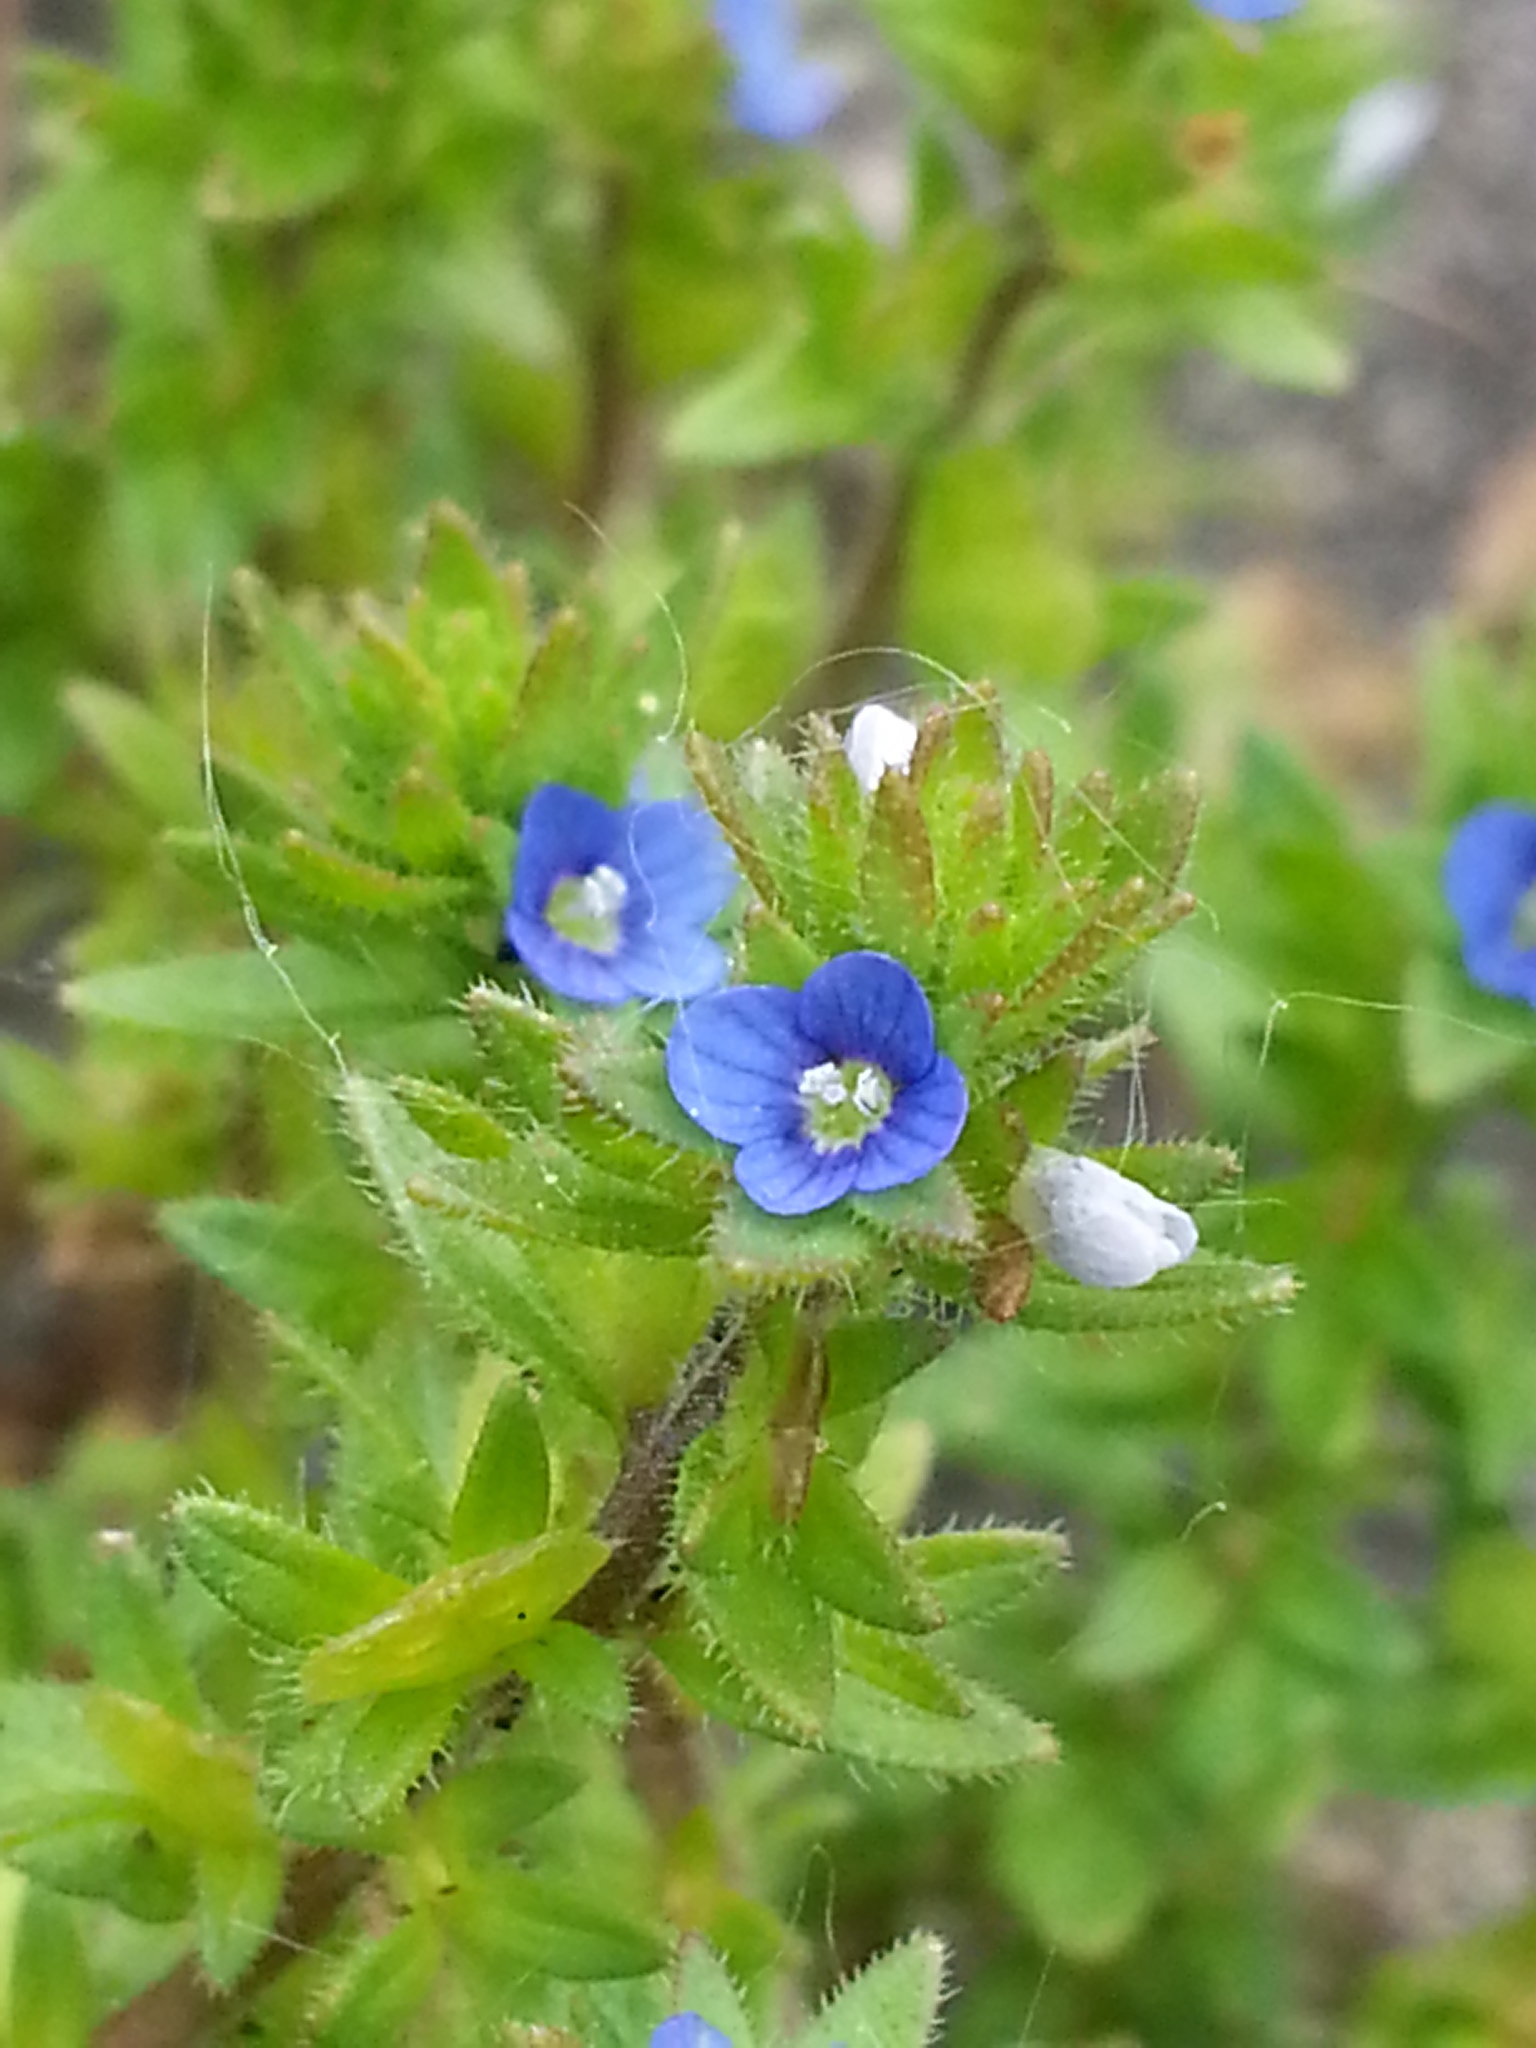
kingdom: Plantae
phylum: Tracheophyta
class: Magnoliopsida
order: Lamiales
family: Plantaginaceae
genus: Veronica
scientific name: Veronica arvensis
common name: Corn speedwell
